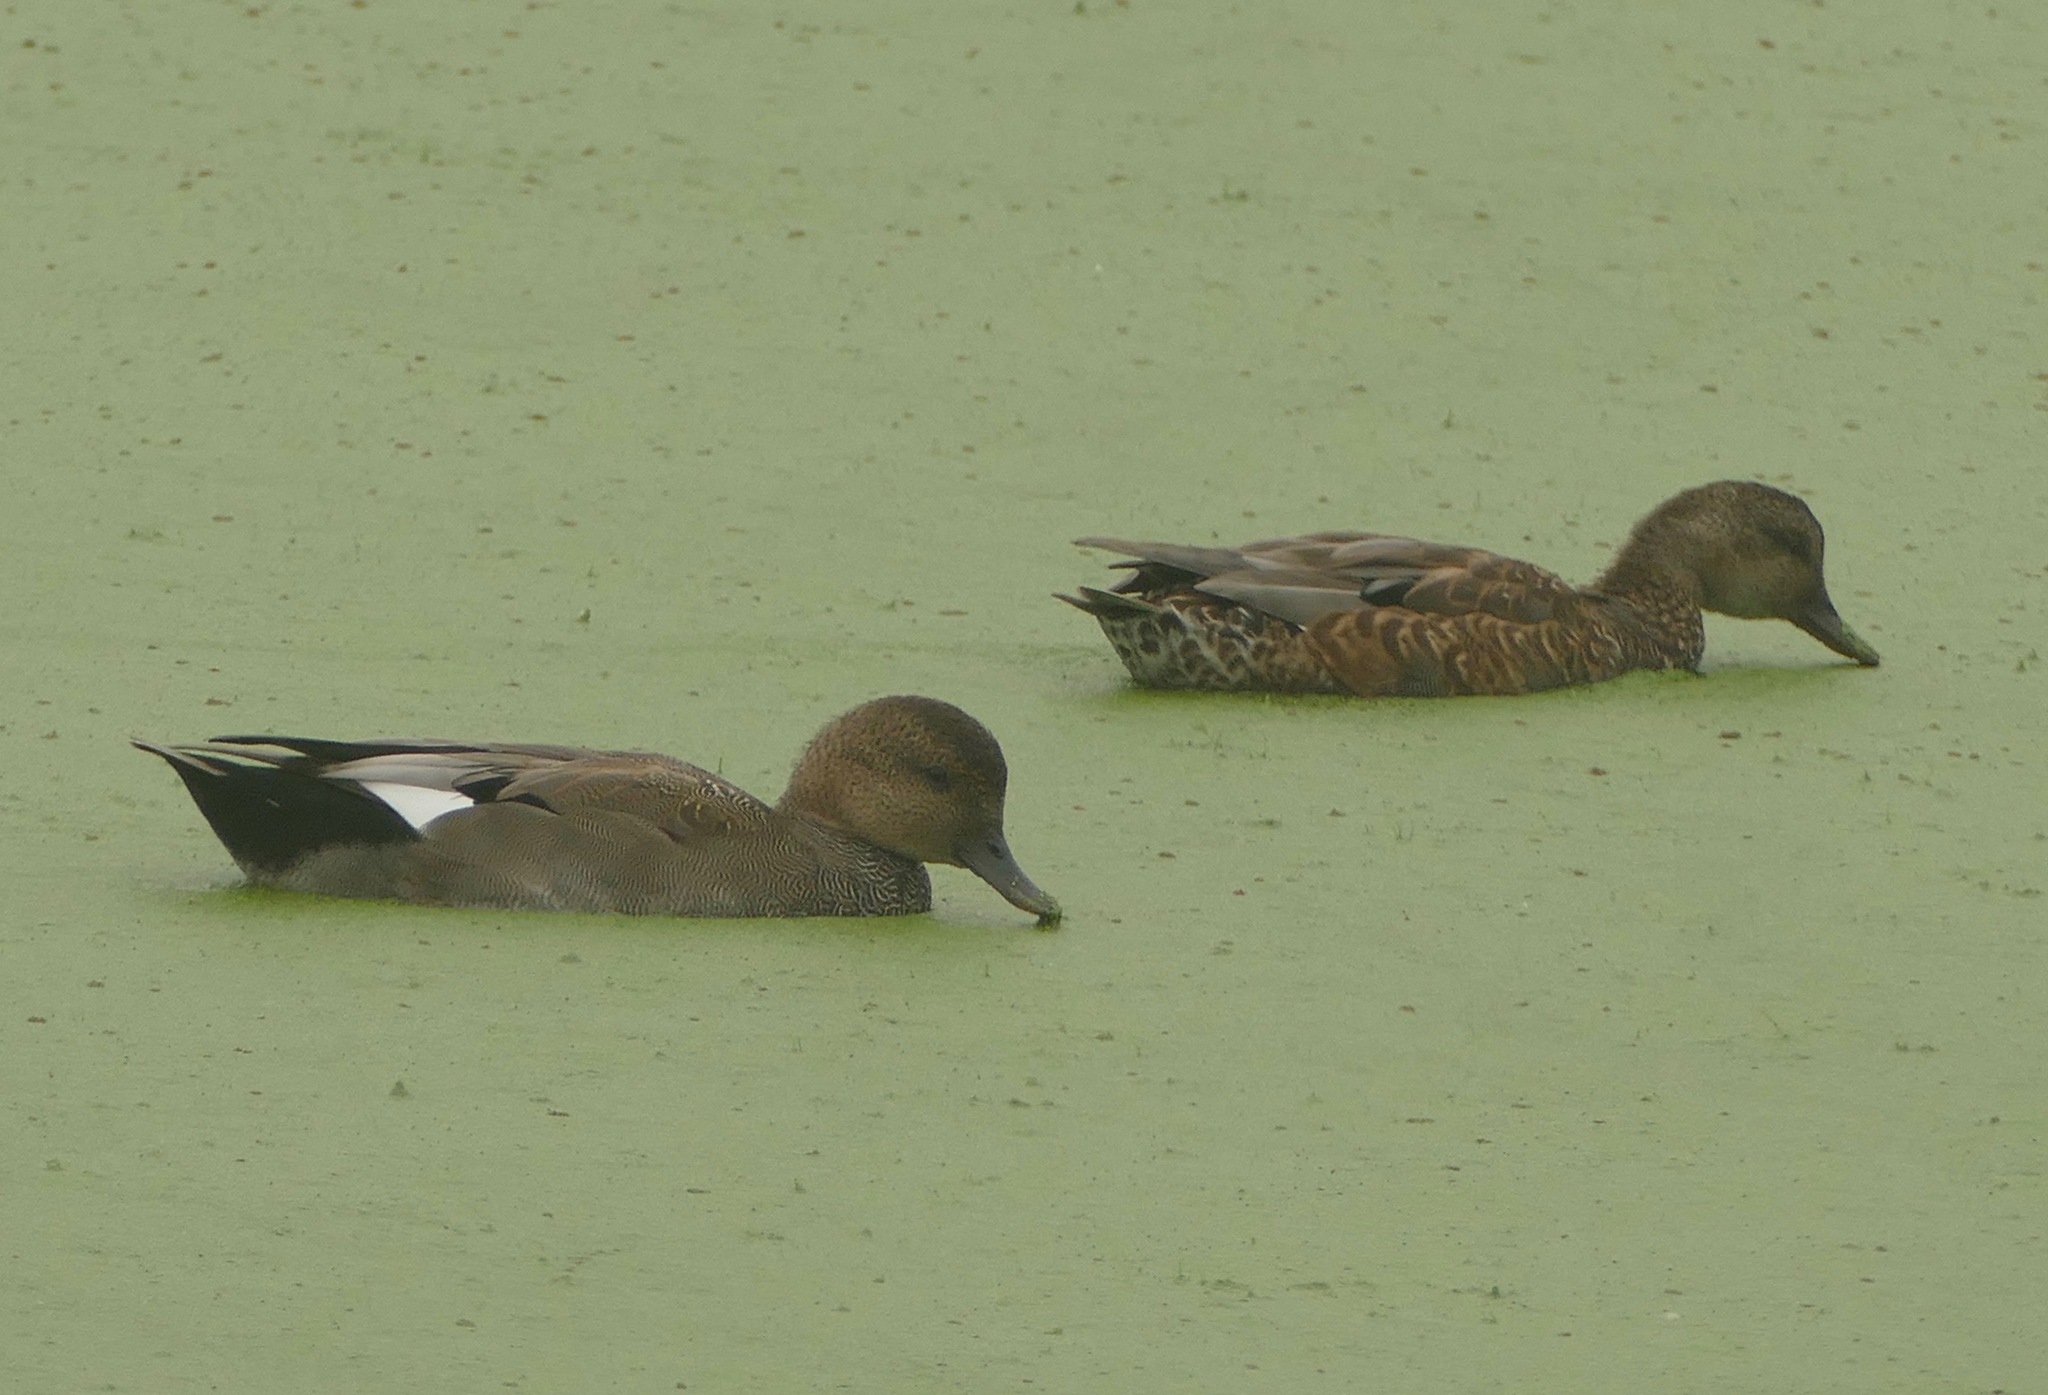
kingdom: Animalia
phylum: Chordata
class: Aves
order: Anseriformes
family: Anatidae
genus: Mareca
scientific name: Mareca strepera
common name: Gadwall
